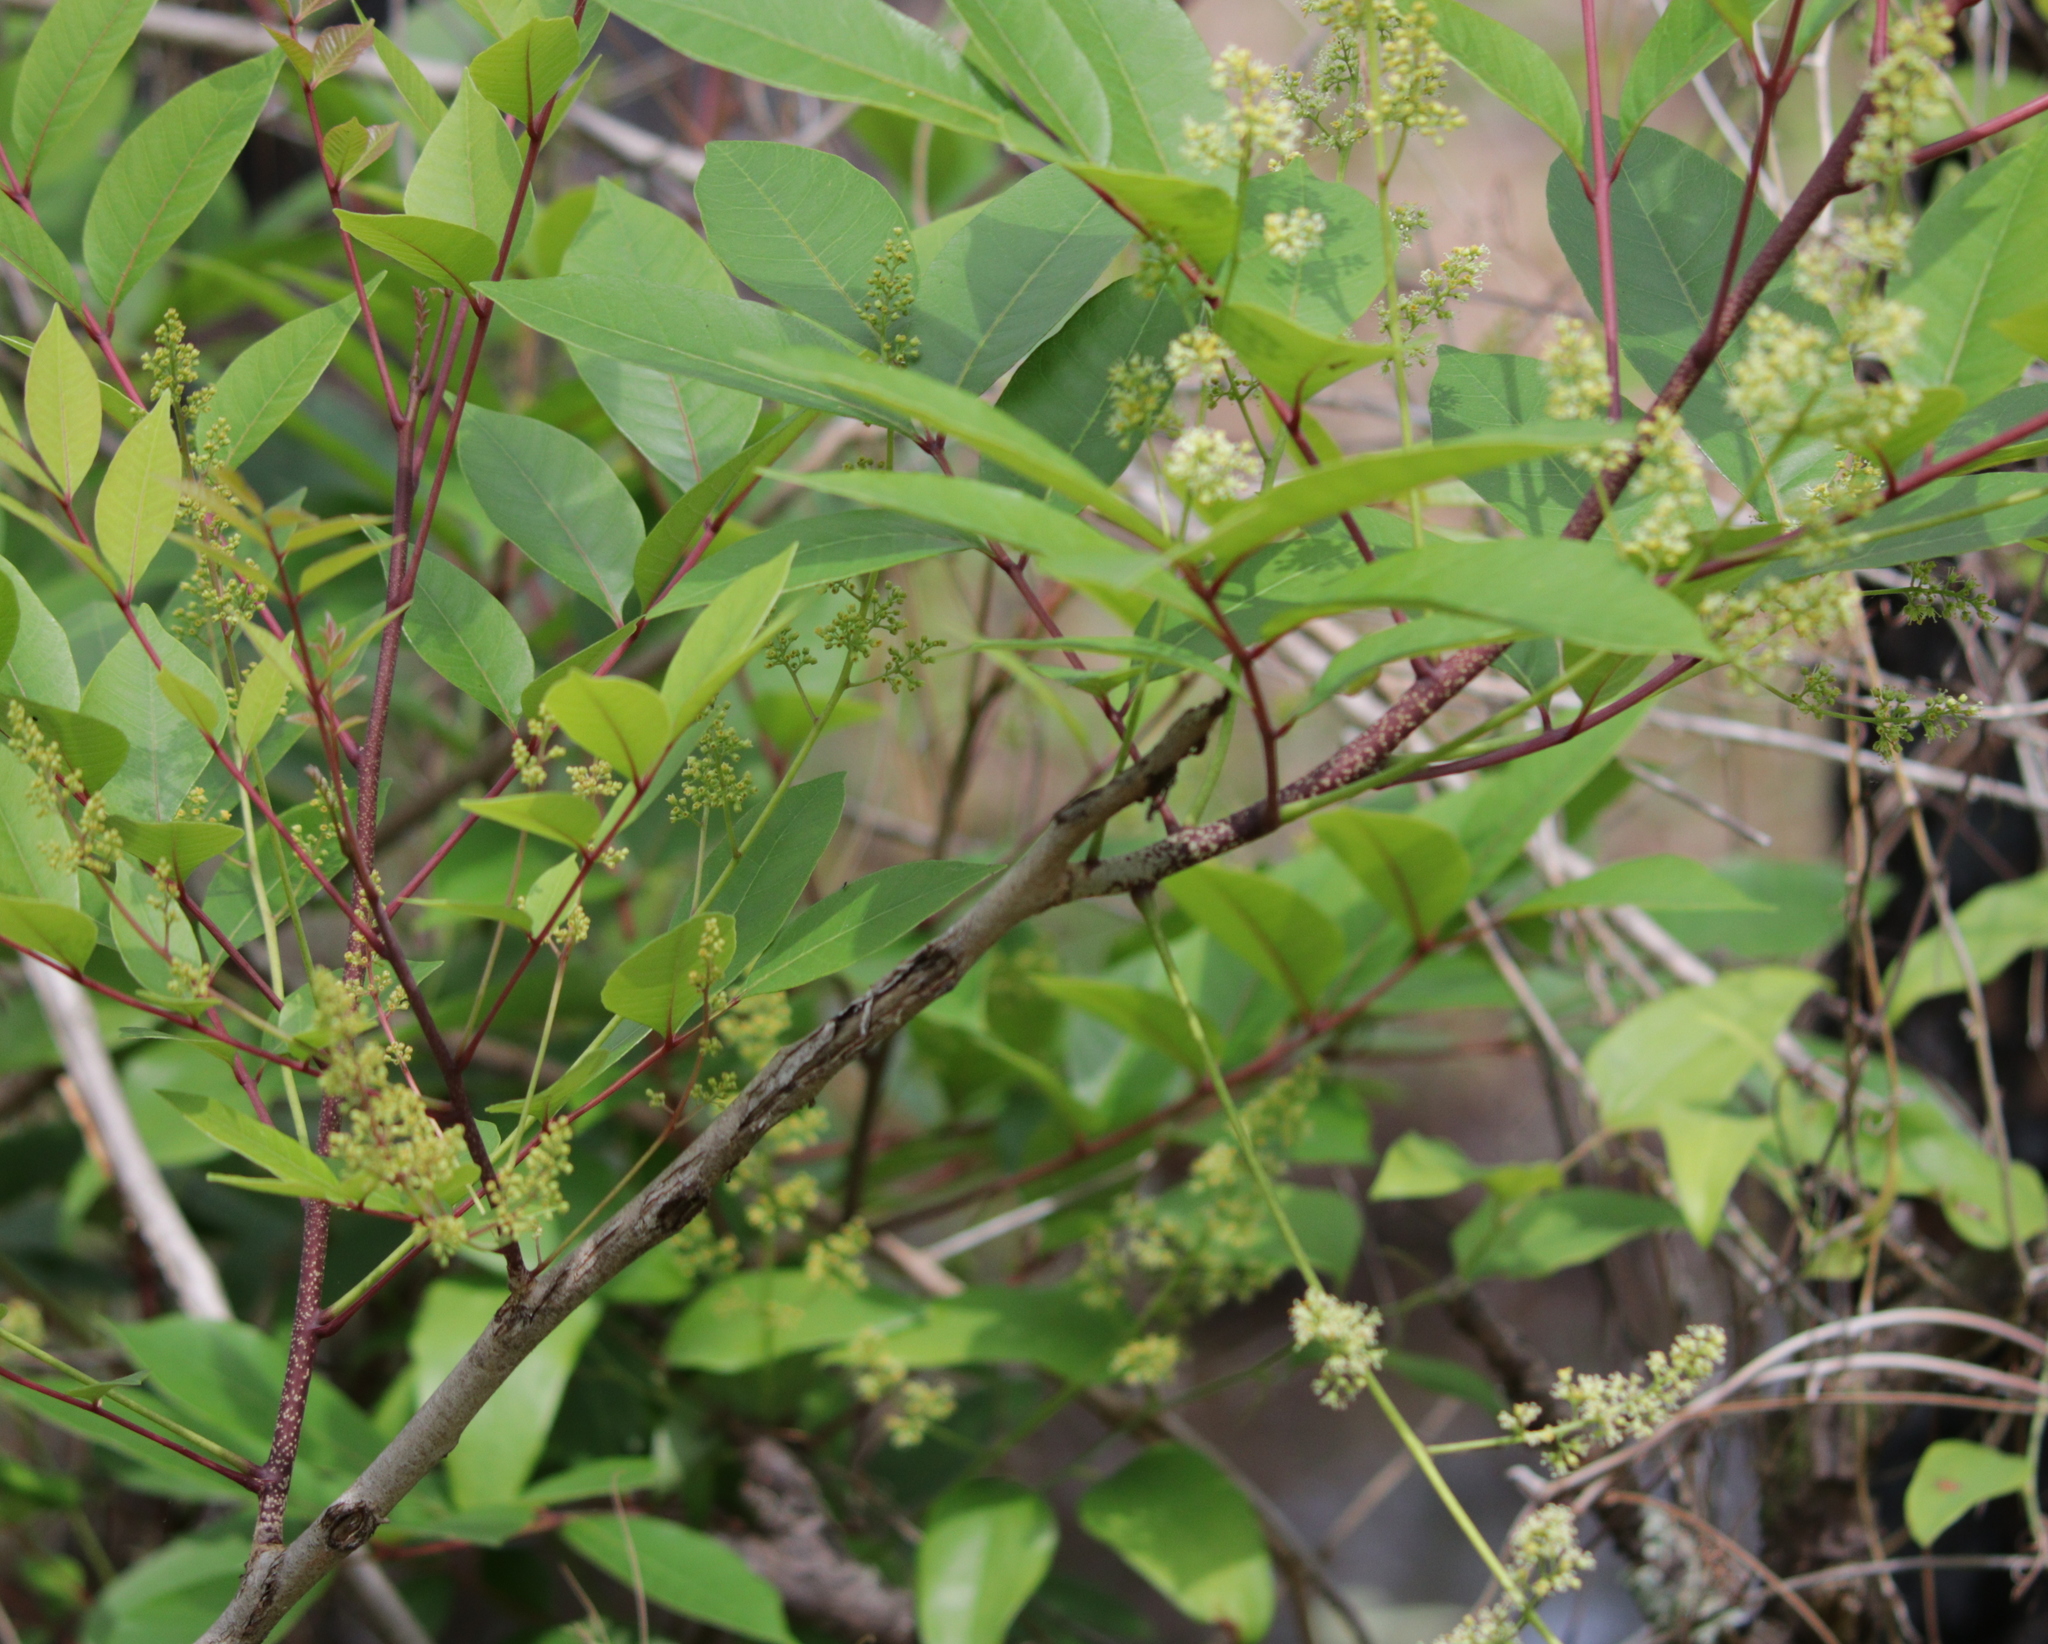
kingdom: Plantae
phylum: Tracheophyta
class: Magnoliopsida
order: Sapindales
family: Anacardiaceae
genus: Toxicodendron
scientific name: Toxicodendron vernix
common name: Poison sumac
